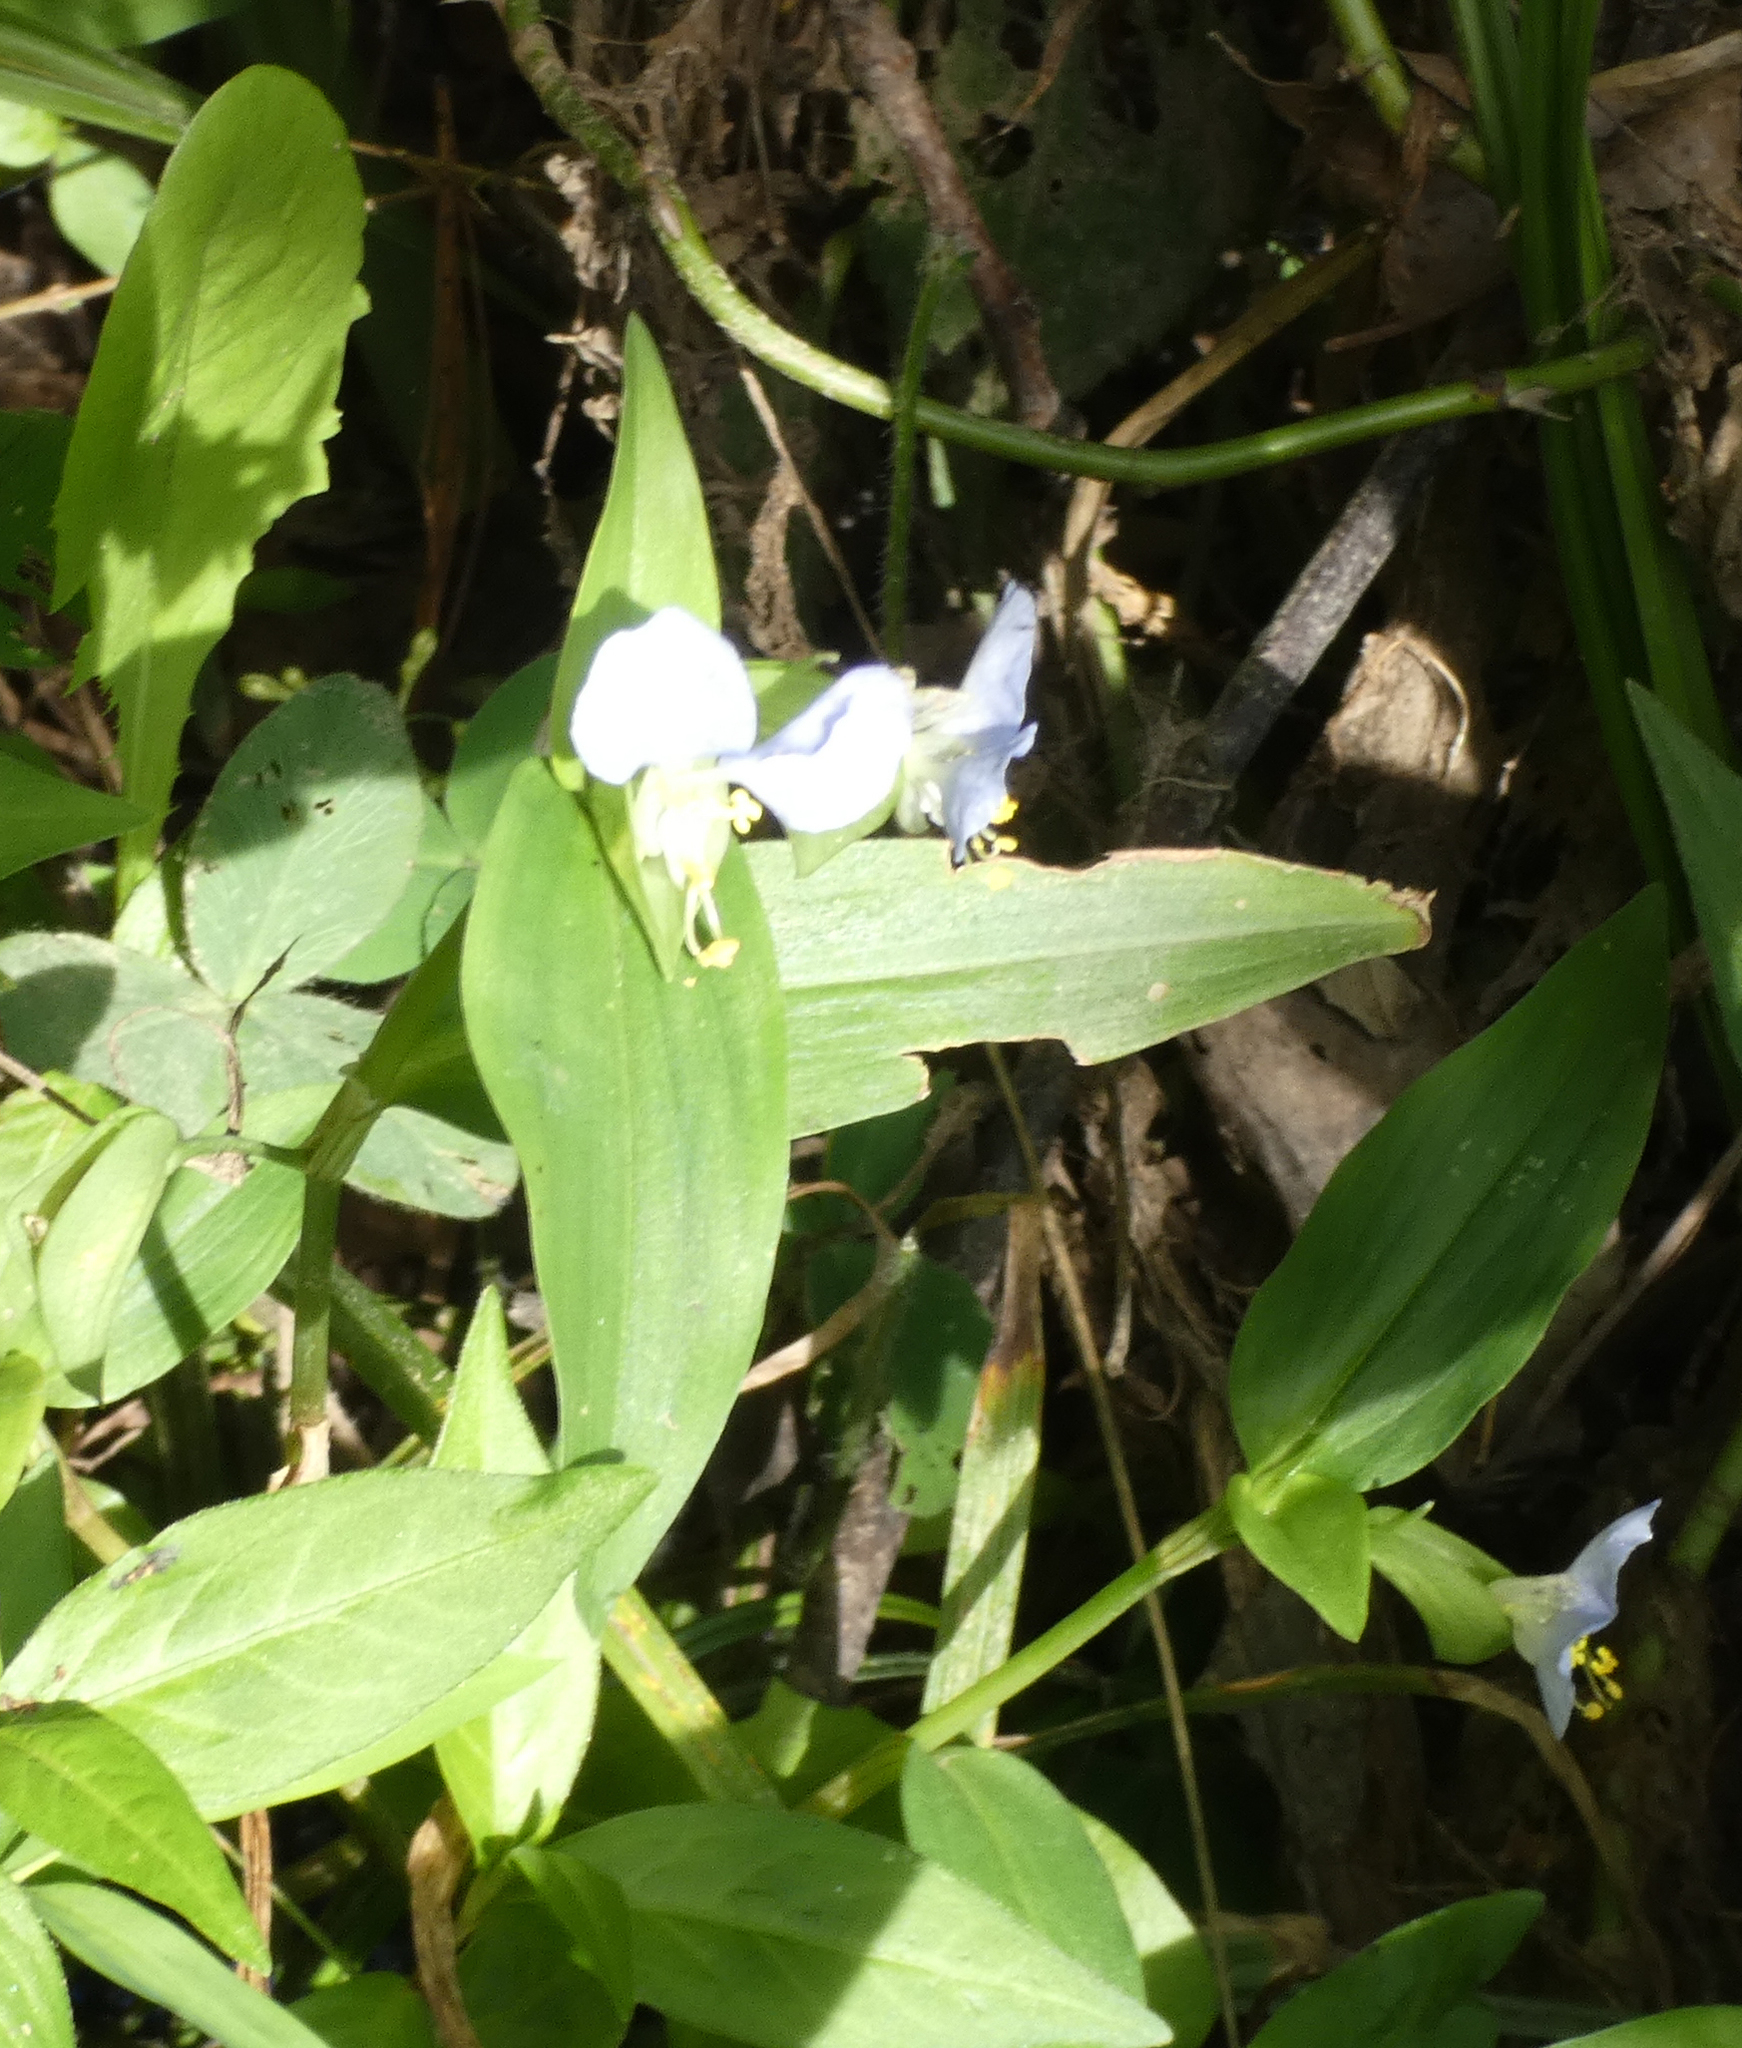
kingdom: Plantae
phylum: Tracheophyta
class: Liliopsida
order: Commelinales
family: Commelinaceae
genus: Commelina
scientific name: Commelina communis
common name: Asiatic dayflower
